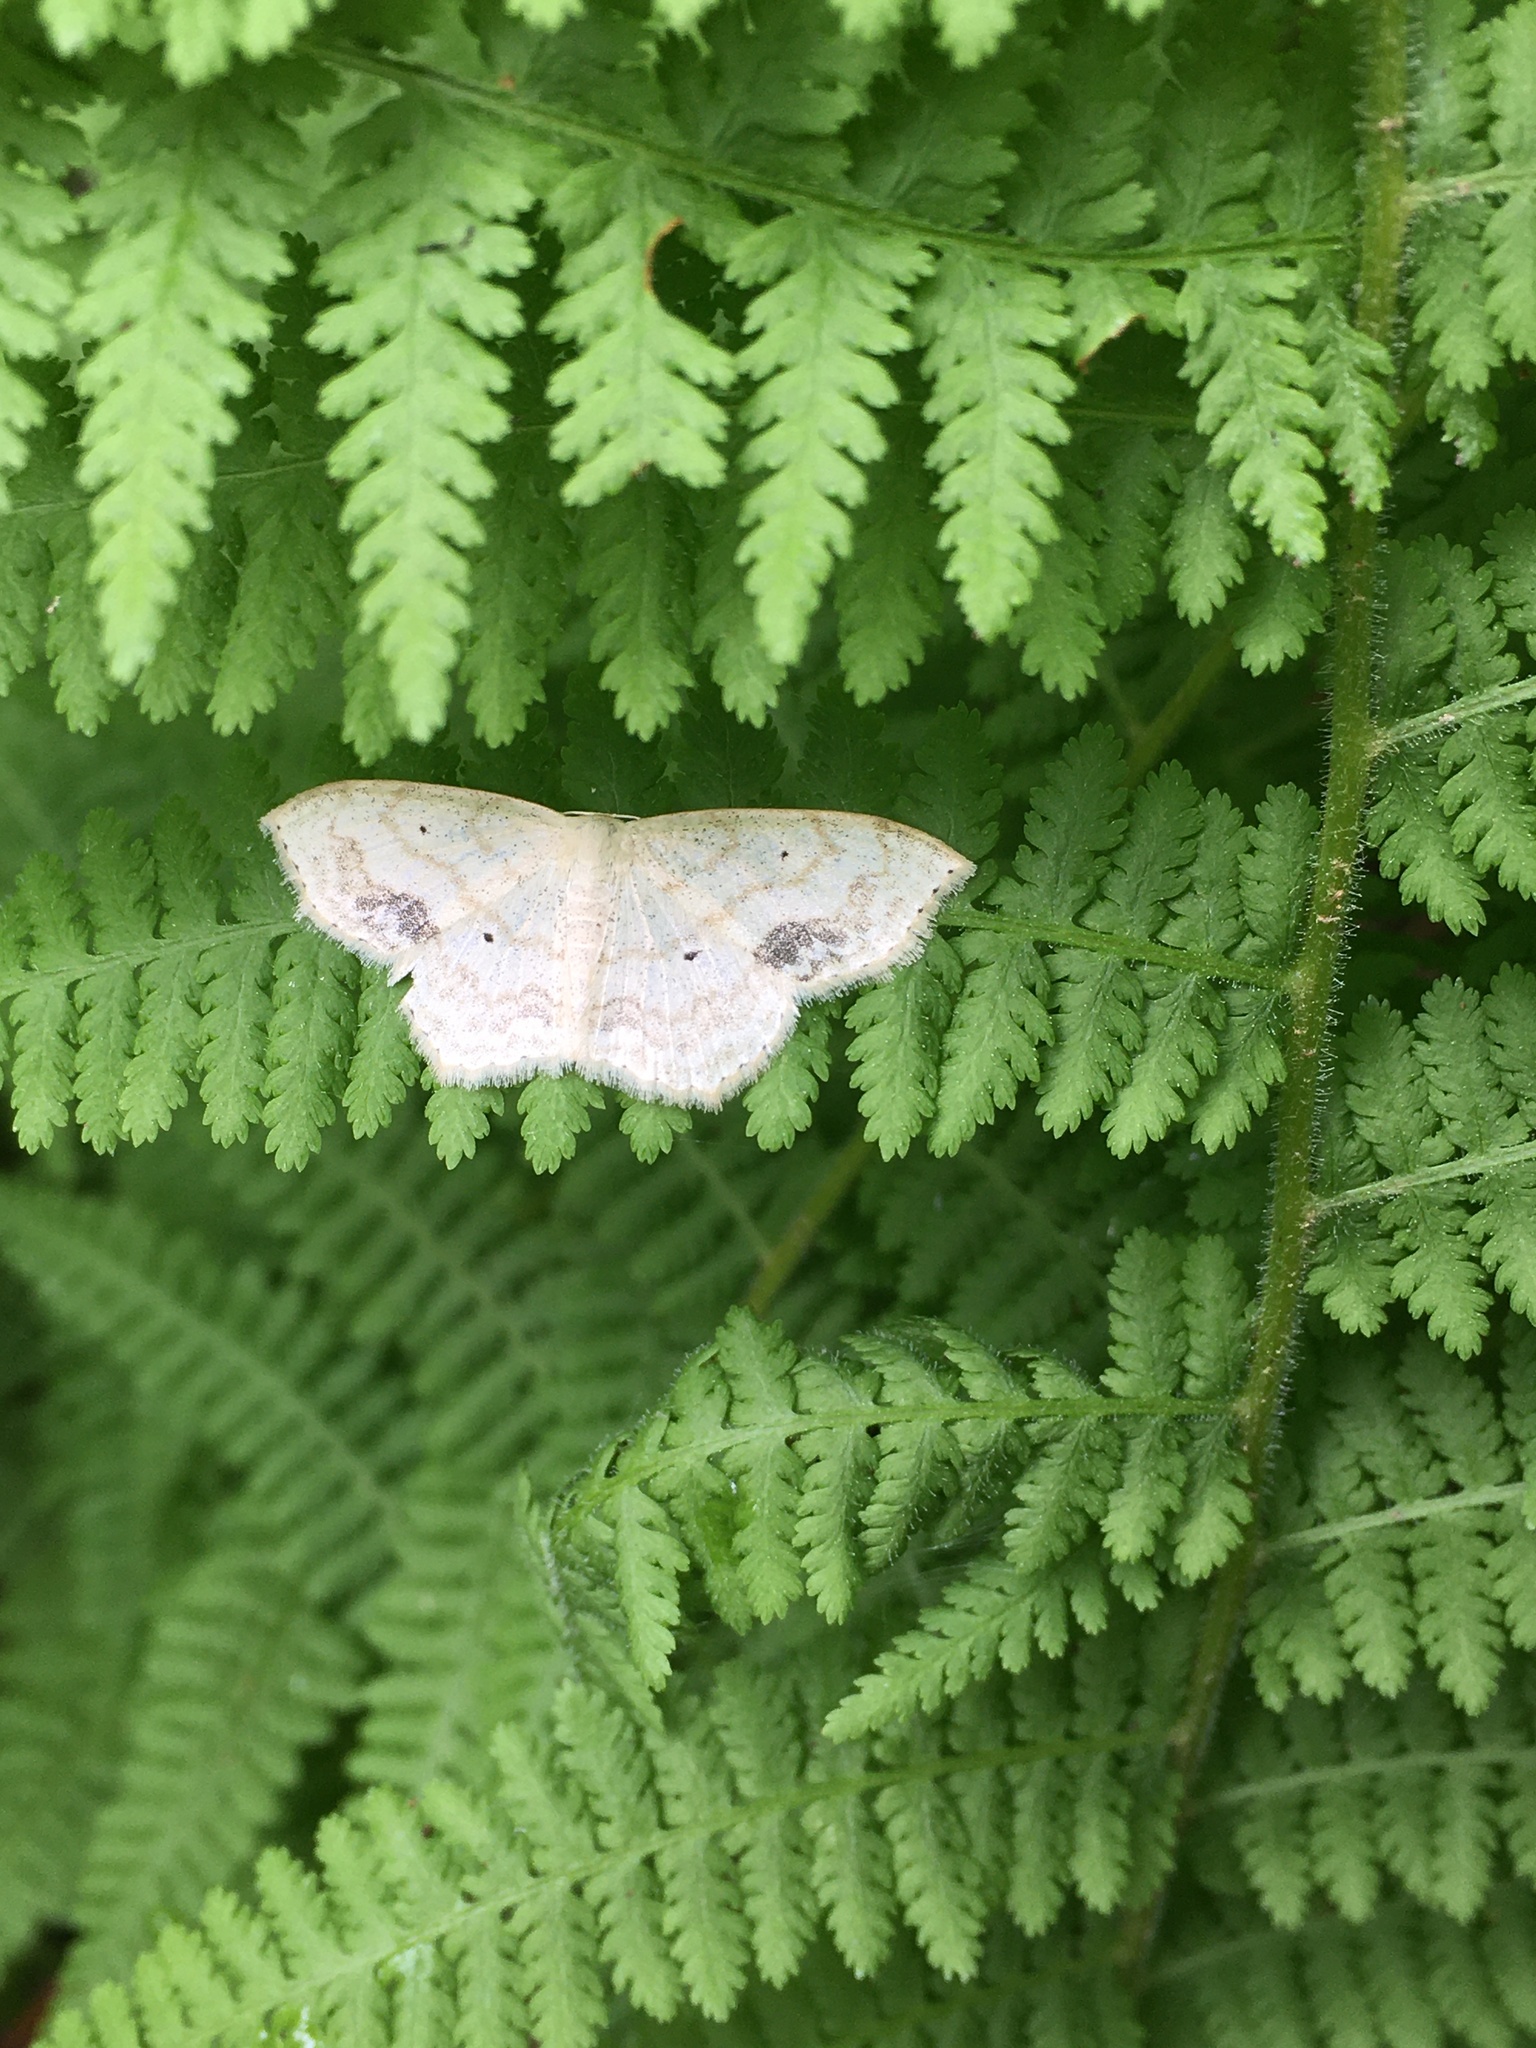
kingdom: Animalia
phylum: Arthropoda
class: Insecta
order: Lepidoptera
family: Geometridae
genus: Scopula
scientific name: Scopula limboundata
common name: Large lace border
